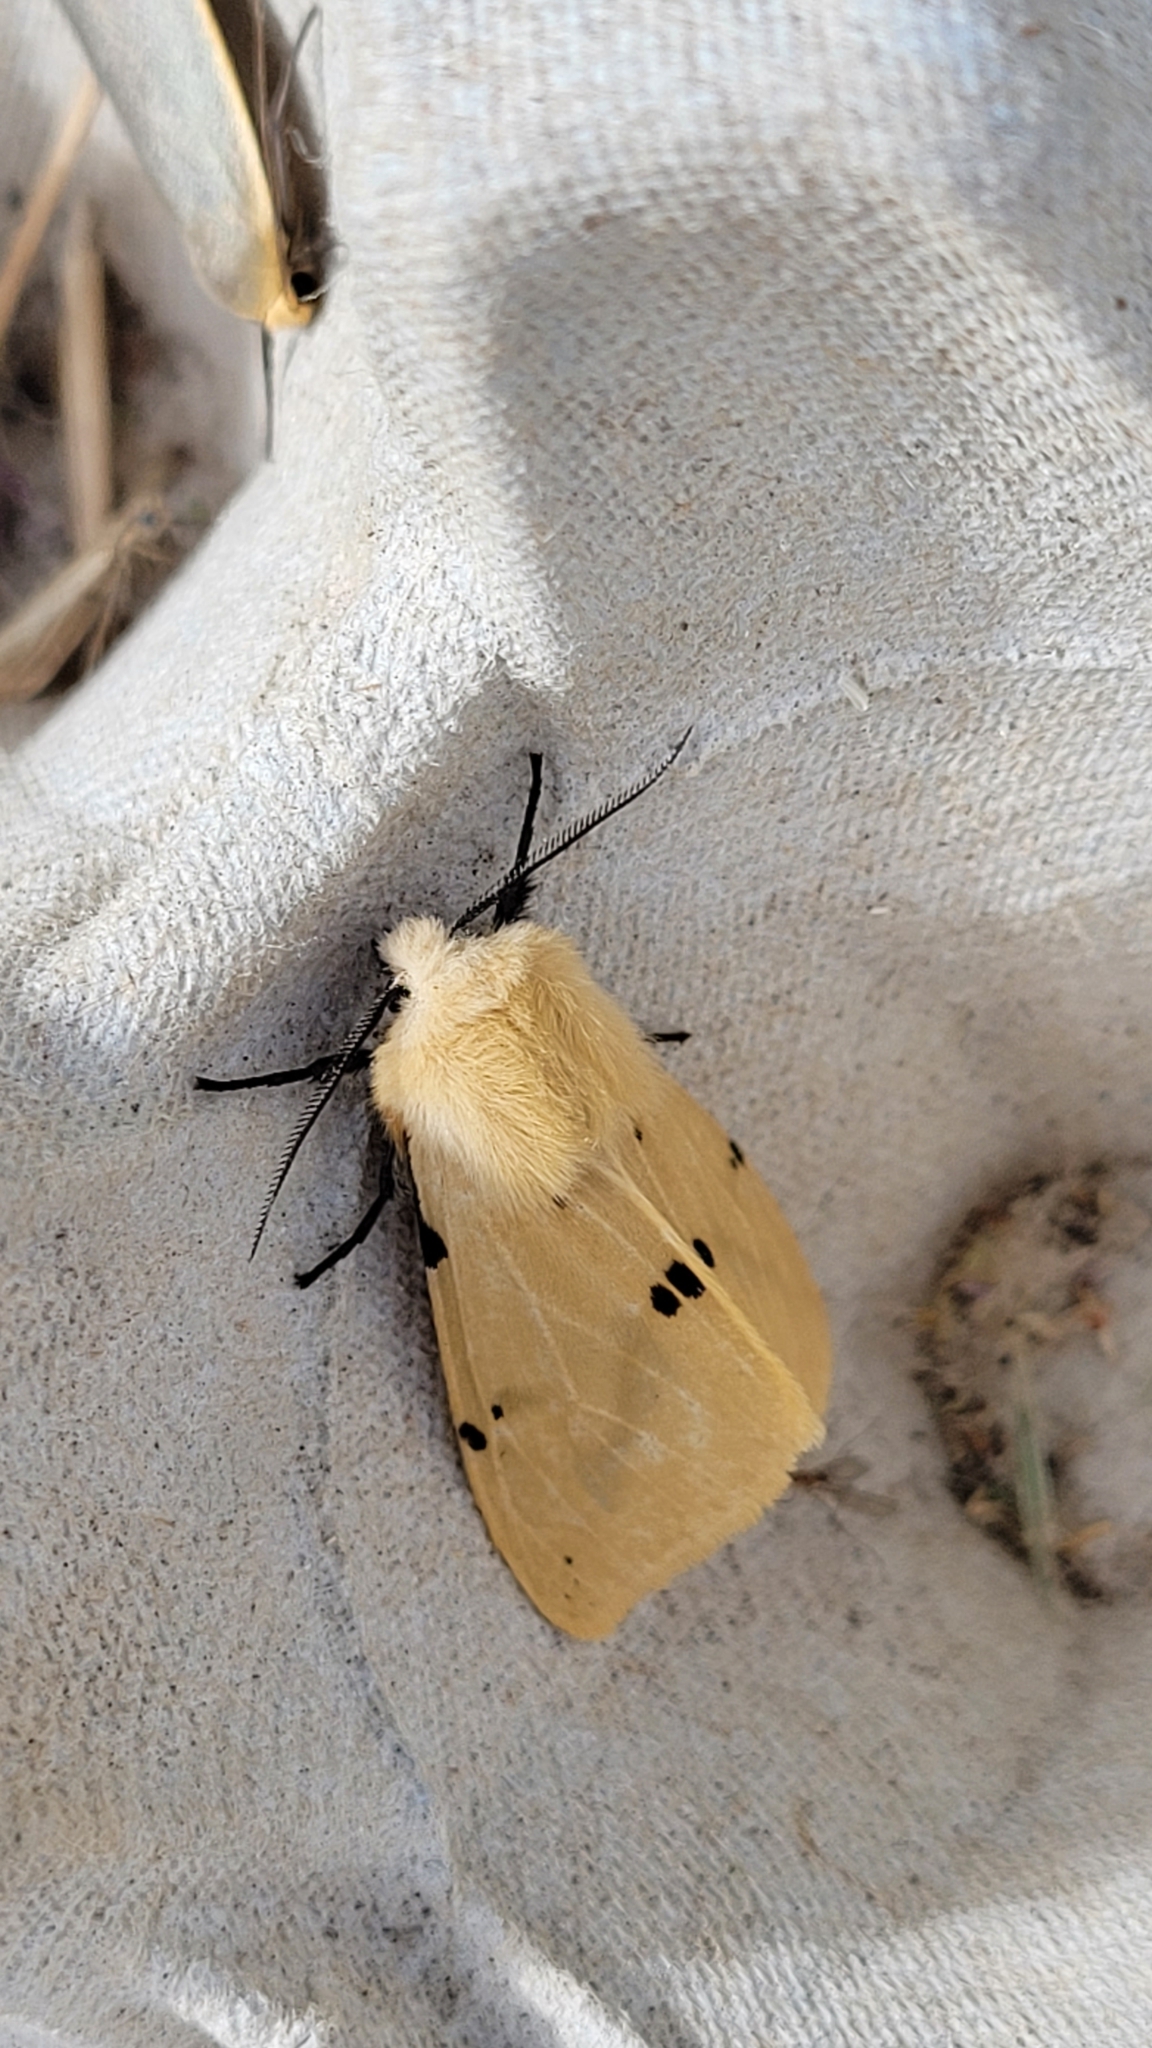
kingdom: Animalia
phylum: Arthropoda
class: Insecta
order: Lepidoptera
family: Erebidae
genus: Spilarctia
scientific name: Spilarctia lutea
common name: Buff ermine
